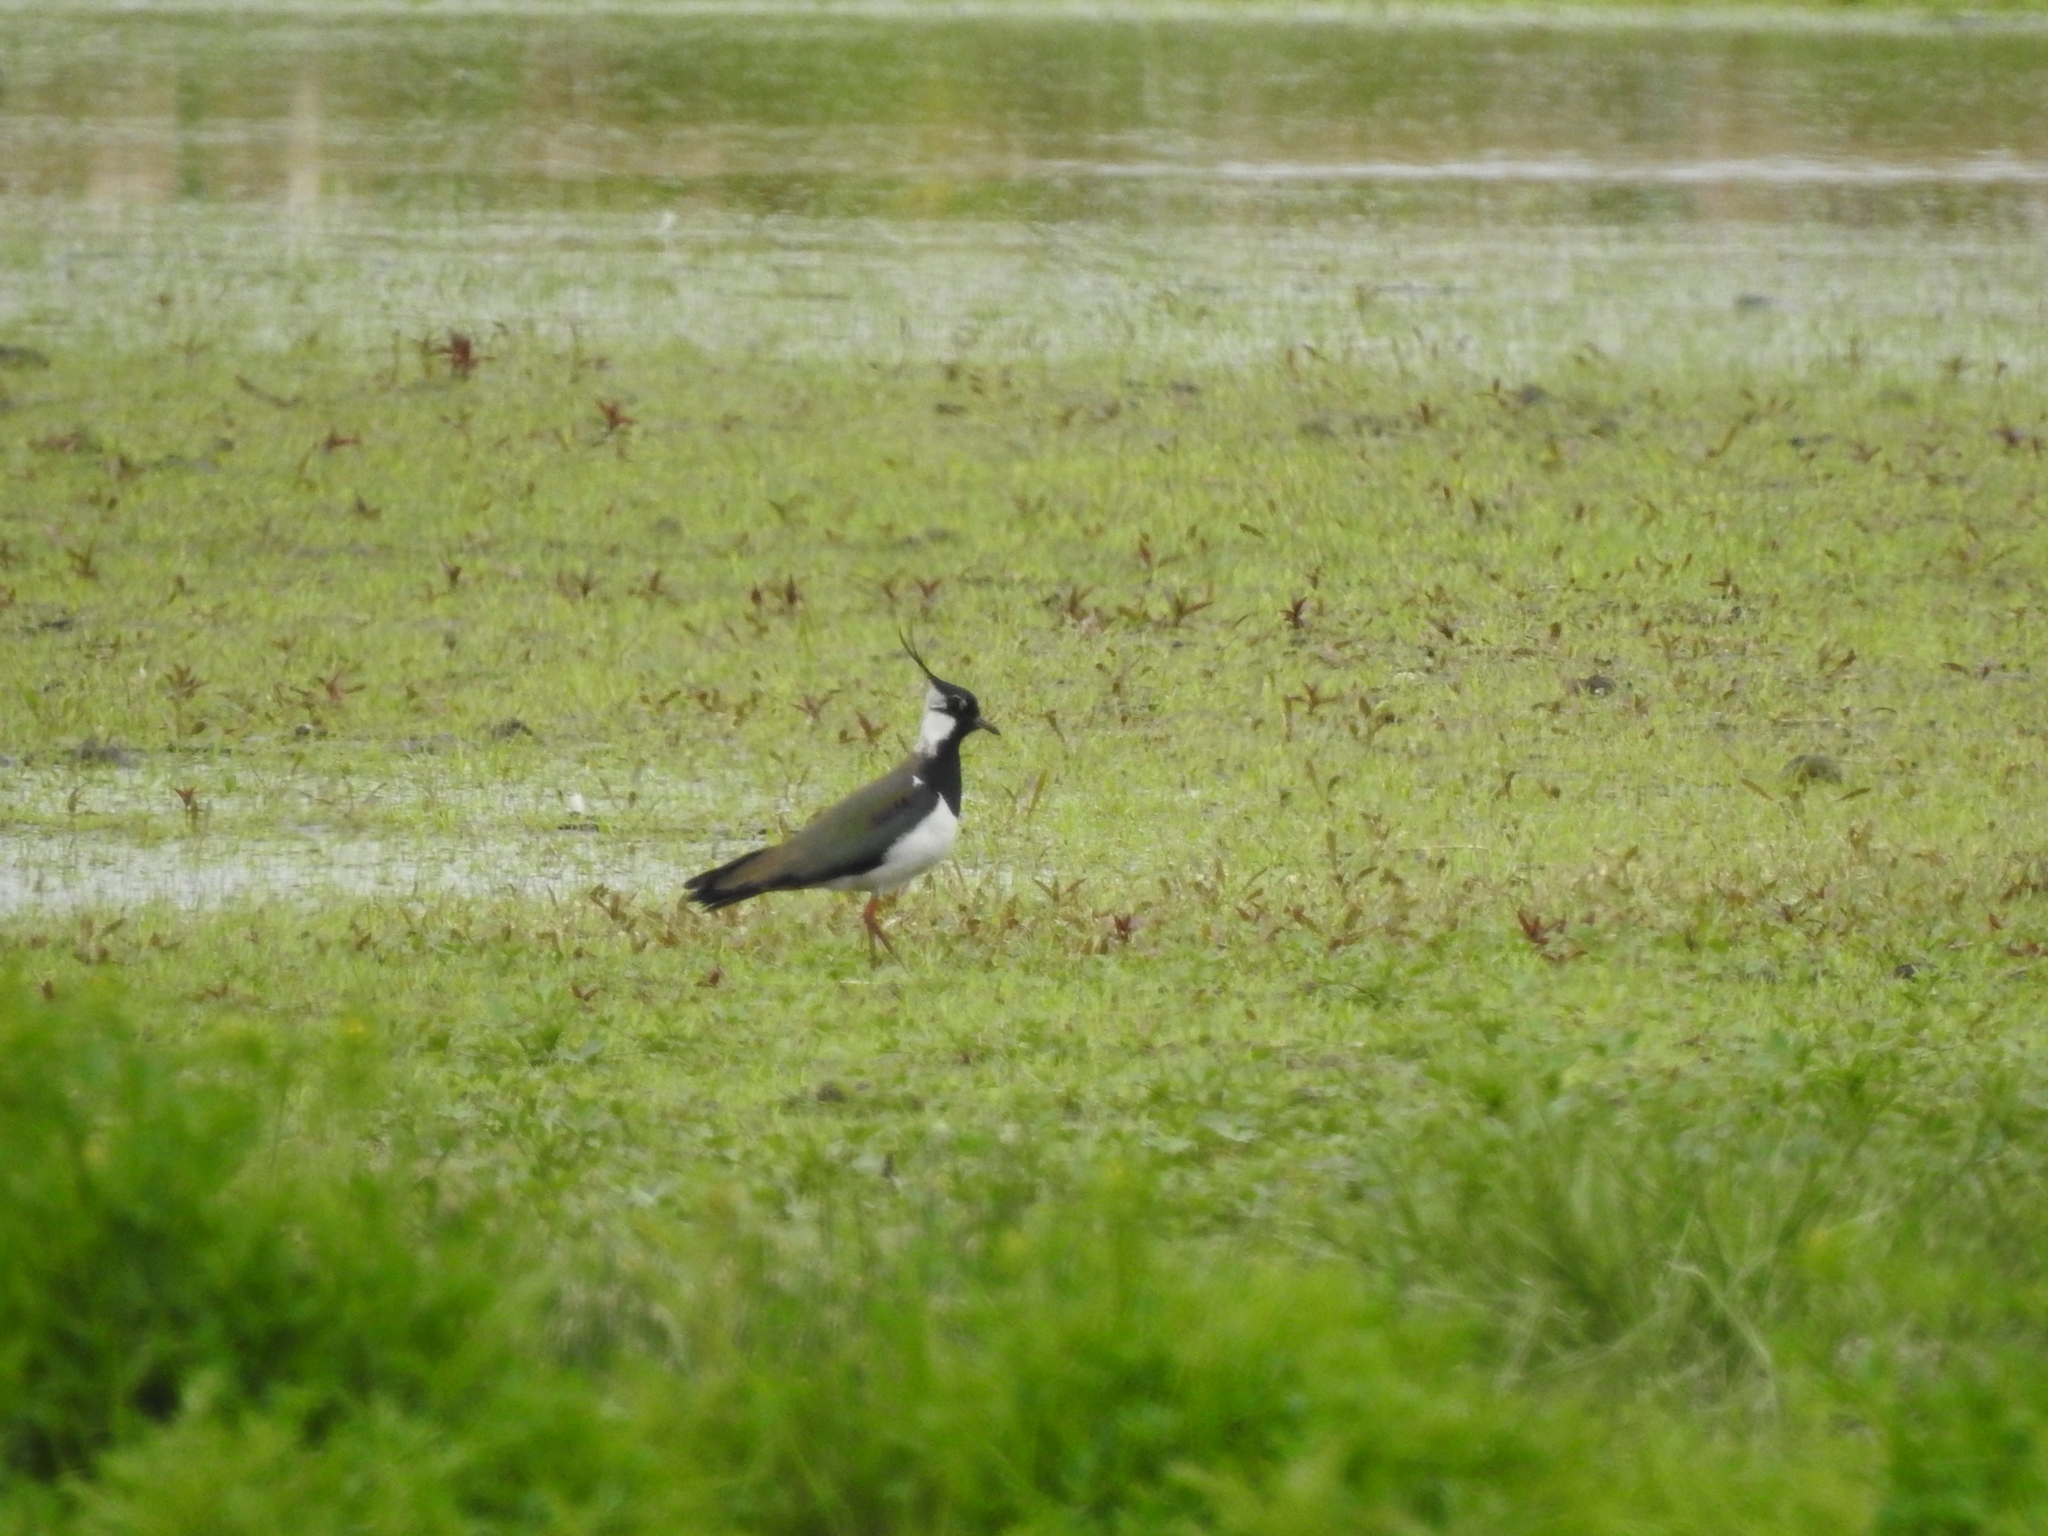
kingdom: Animalia
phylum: Chordata
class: Aves
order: Charadriiformes
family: Charadriidae
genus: Vanellus
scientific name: Vanellus vanellus
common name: Northern lapwing
